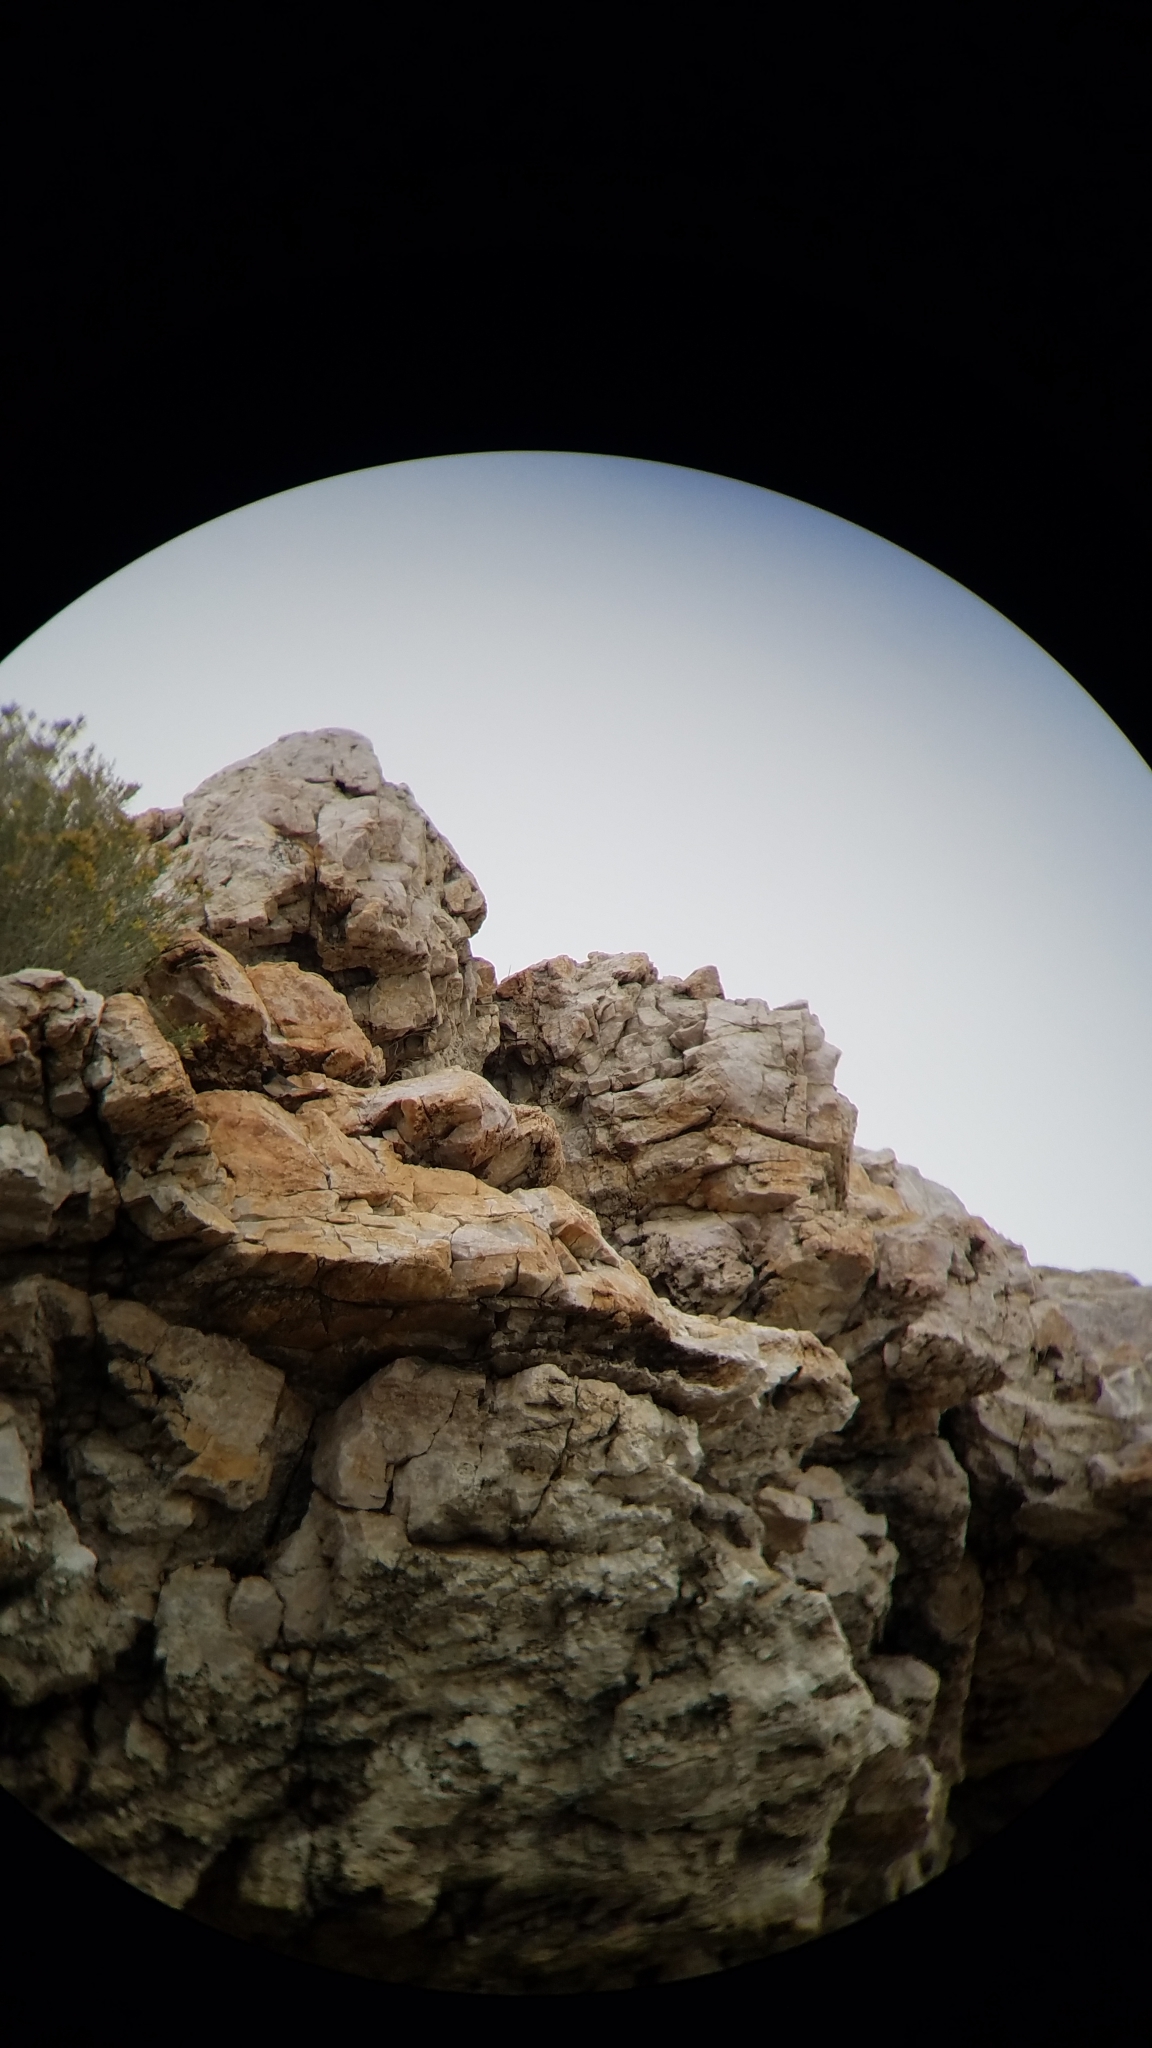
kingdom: Animalia
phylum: Chordata
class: Aves
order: Passeriformes
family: Passerellidae
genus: Junco
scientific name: Junco hyemalis
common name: Dark-eyed junco
